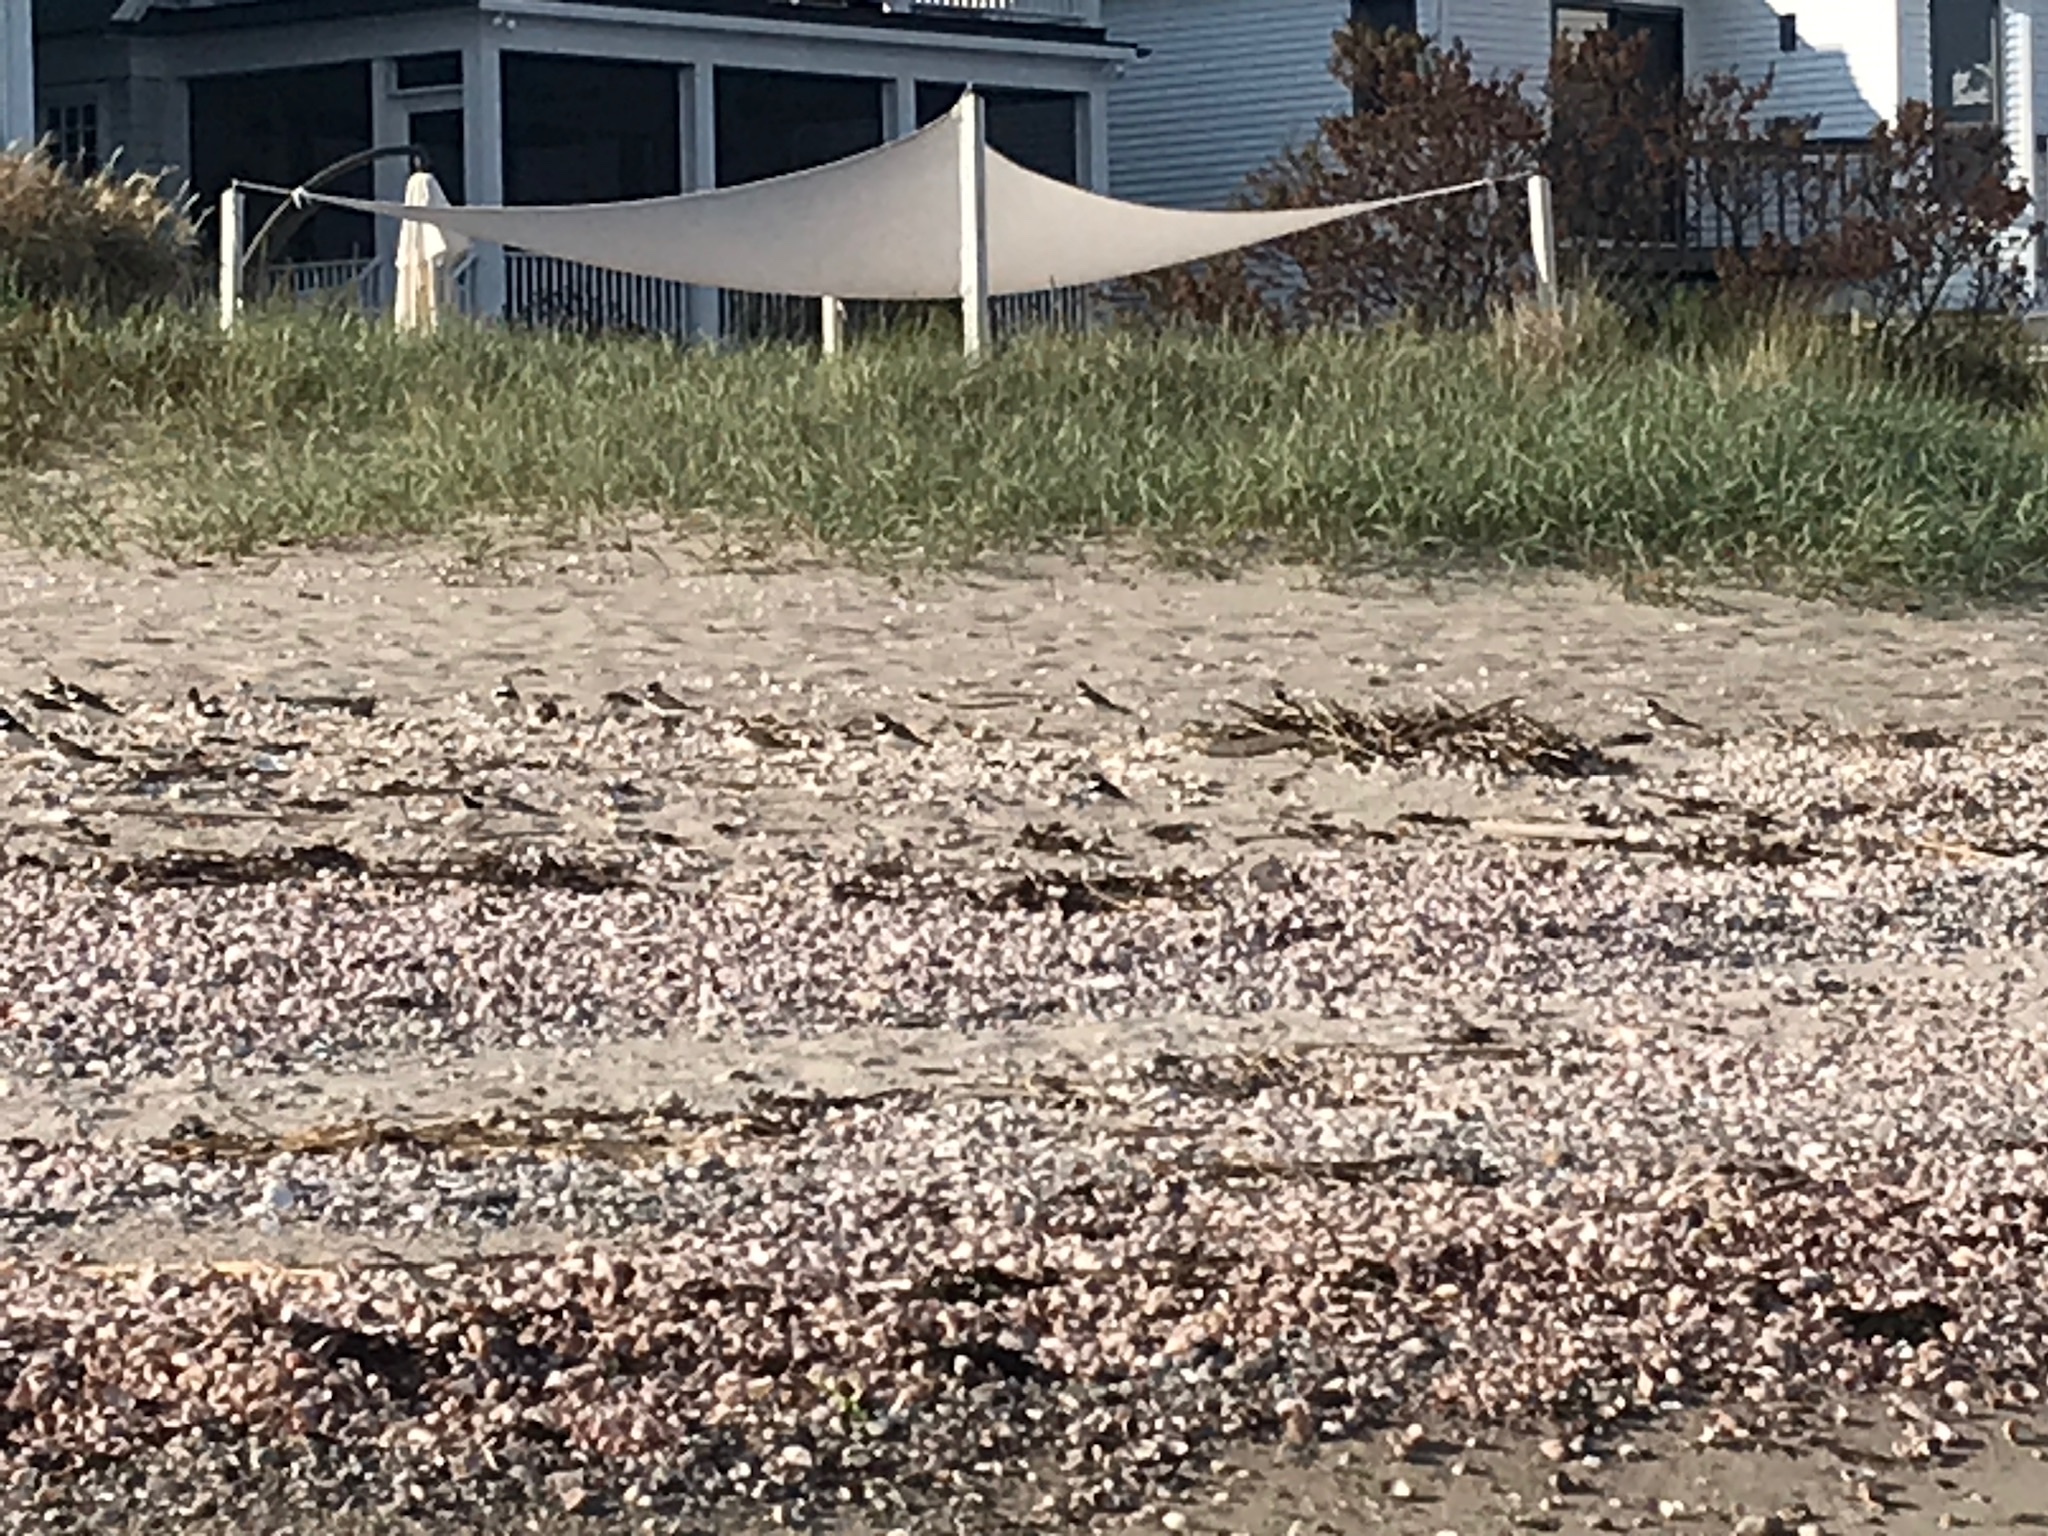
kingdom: Animalia
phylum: Chordata
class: Aves
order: Charadriiformes
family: Charadriidae
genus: Charadrius
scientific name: Charadrius semipalmatus
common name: Semipalmated plover
